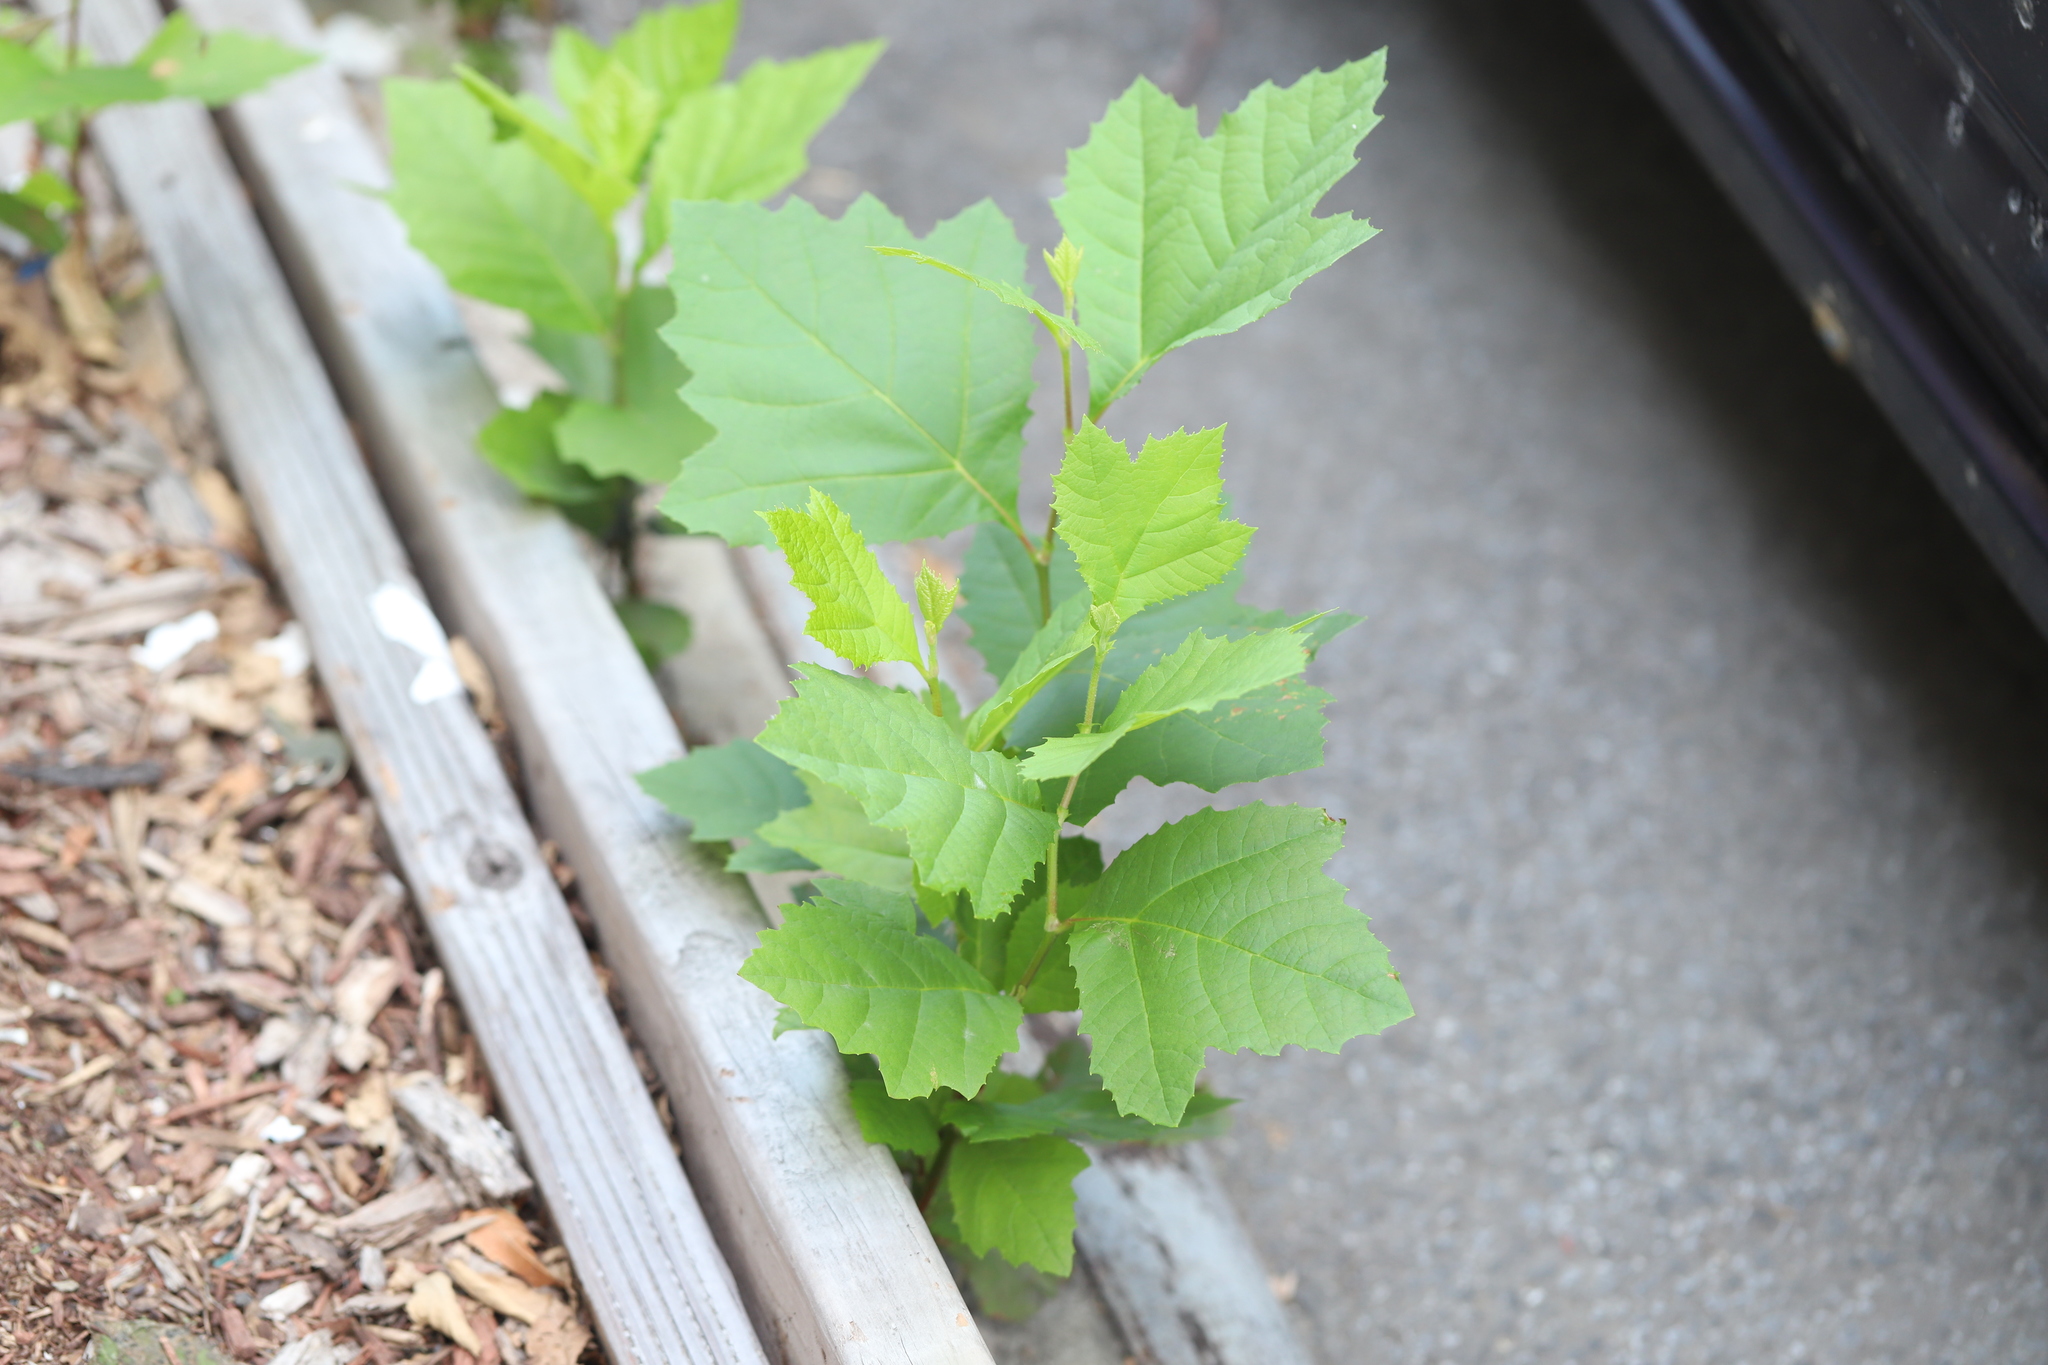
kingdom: Plantae
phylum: Tracheophyta
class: Magnoliopsida
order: Proteales
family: Platanaceae
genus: Platanus
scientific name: Platanus occidentalis
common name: American sycamore
